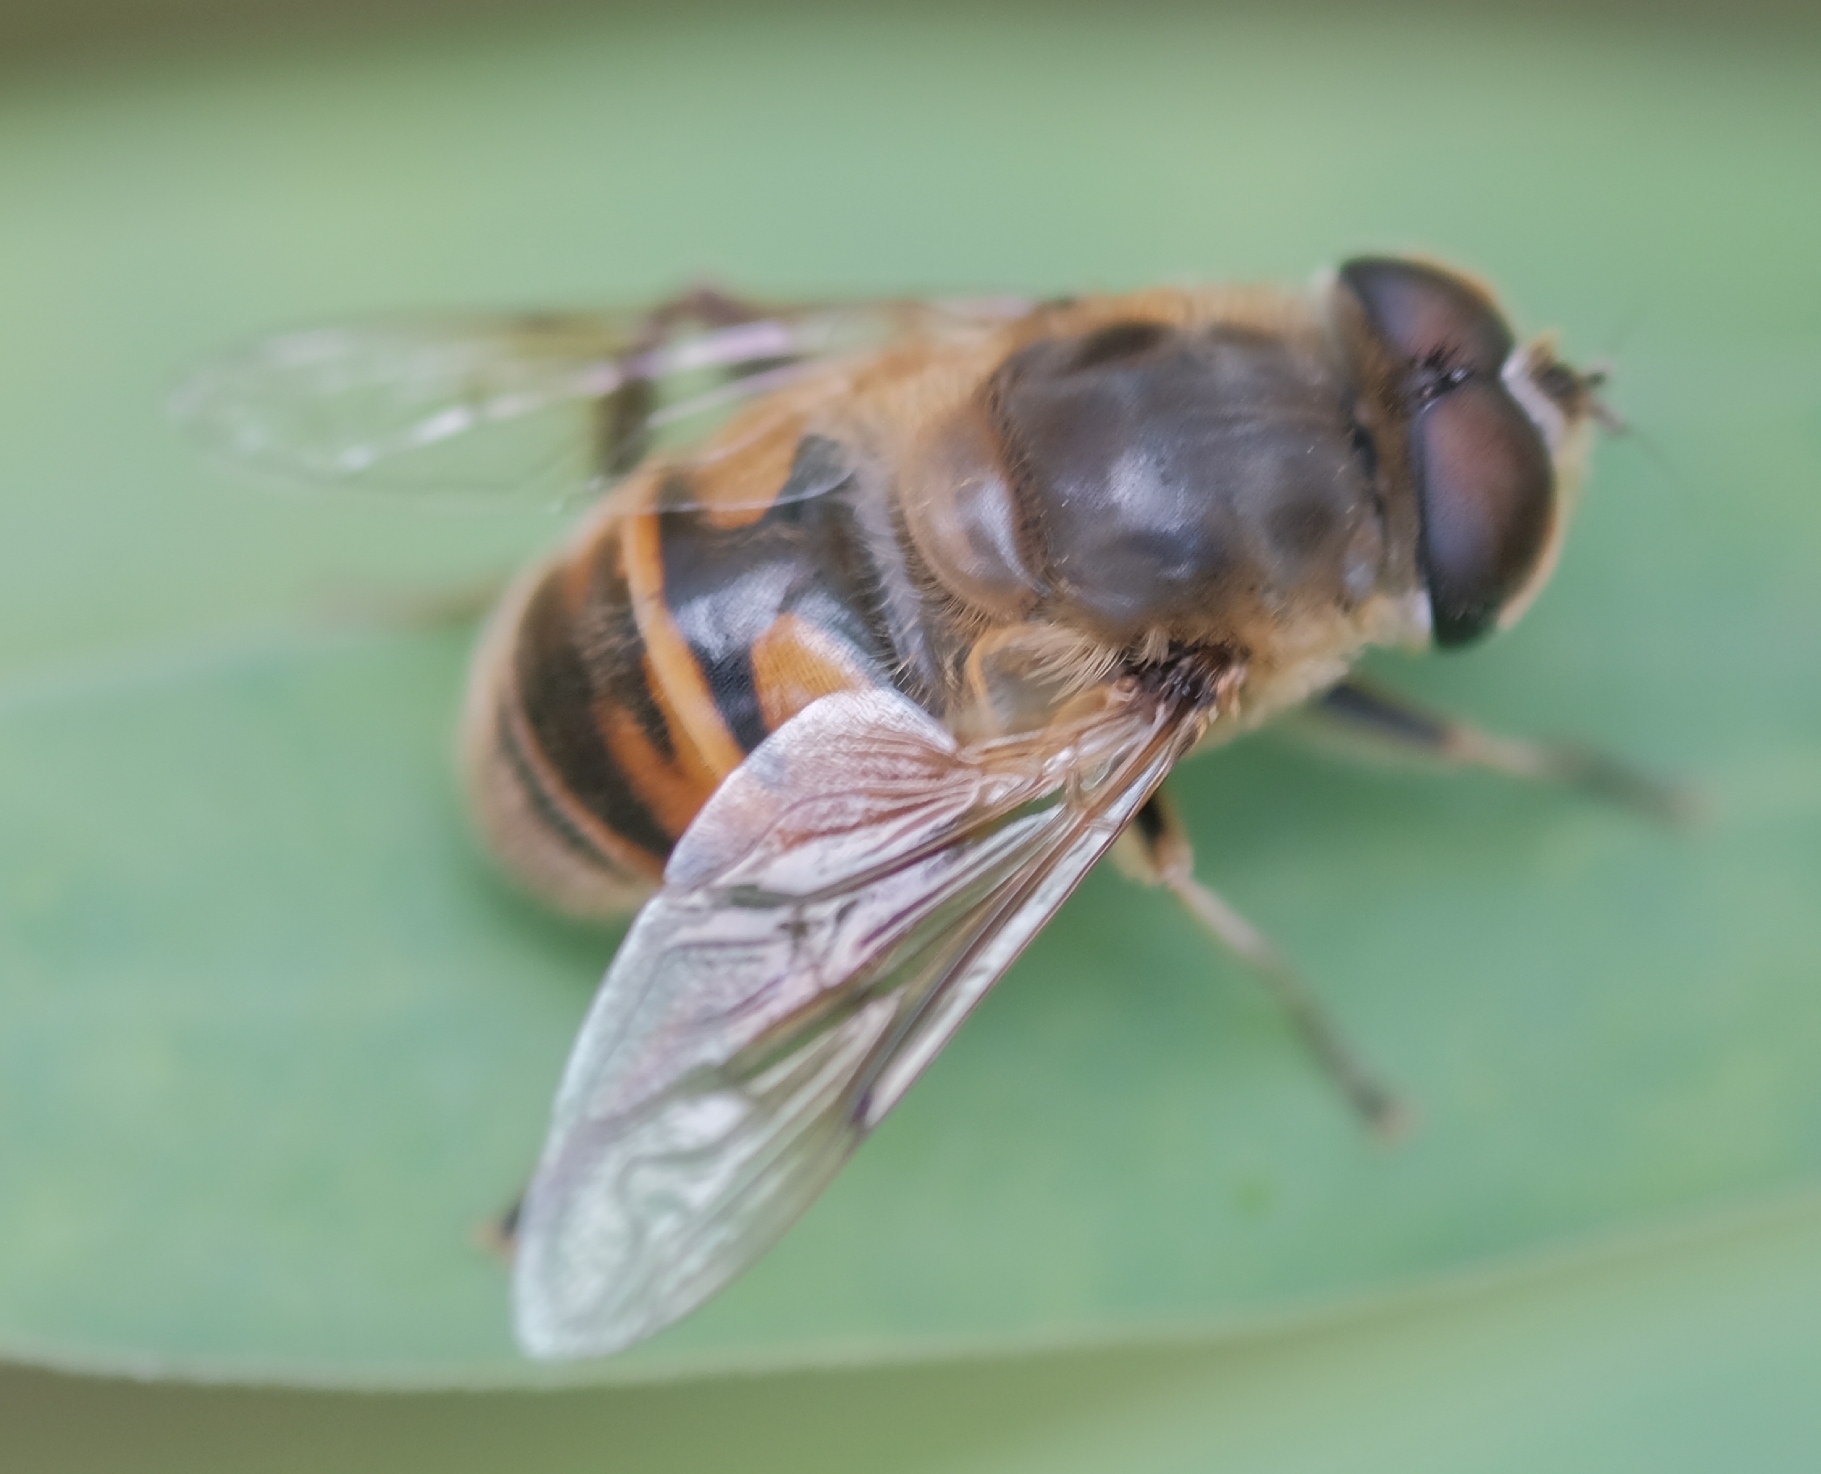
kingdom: Animalia
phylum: Arthropoda
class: Insecta
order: Diptera
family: Syrphidae
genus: Eristalis
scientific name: Eristalis tenax
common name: Drone fly
